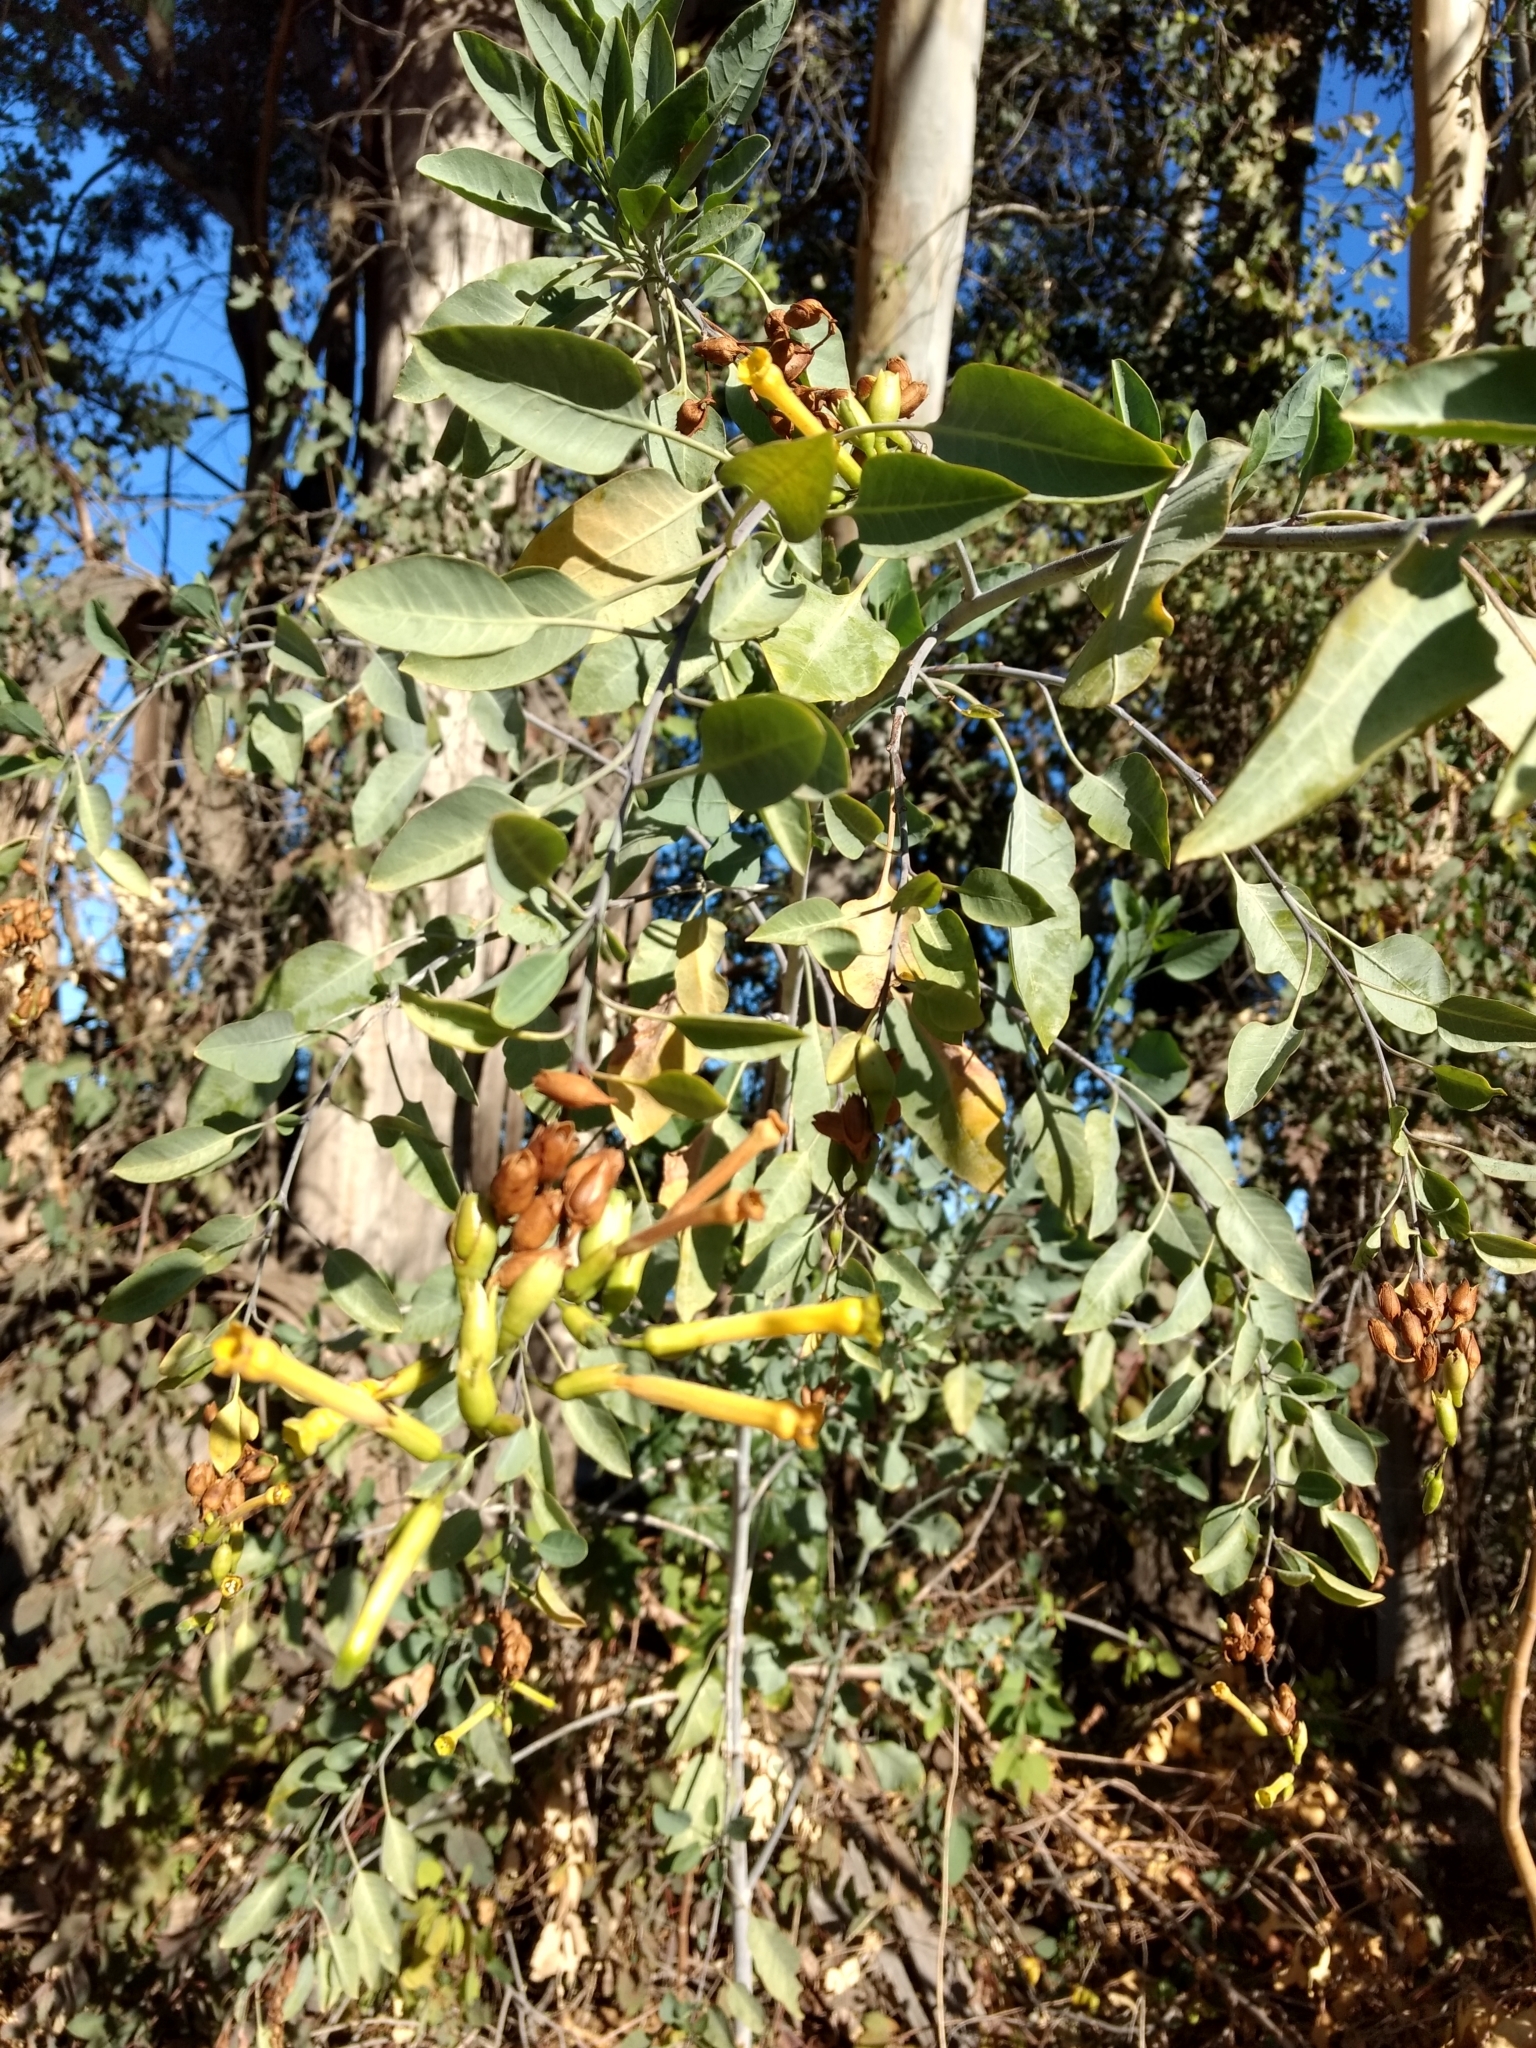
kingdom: Plantae
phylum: Tracheophyta
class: Magnoliopsida
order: Solanales
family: Solanaceae
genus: Nicotiana
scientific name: Nicotiana glauca
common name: Tree tobacco
